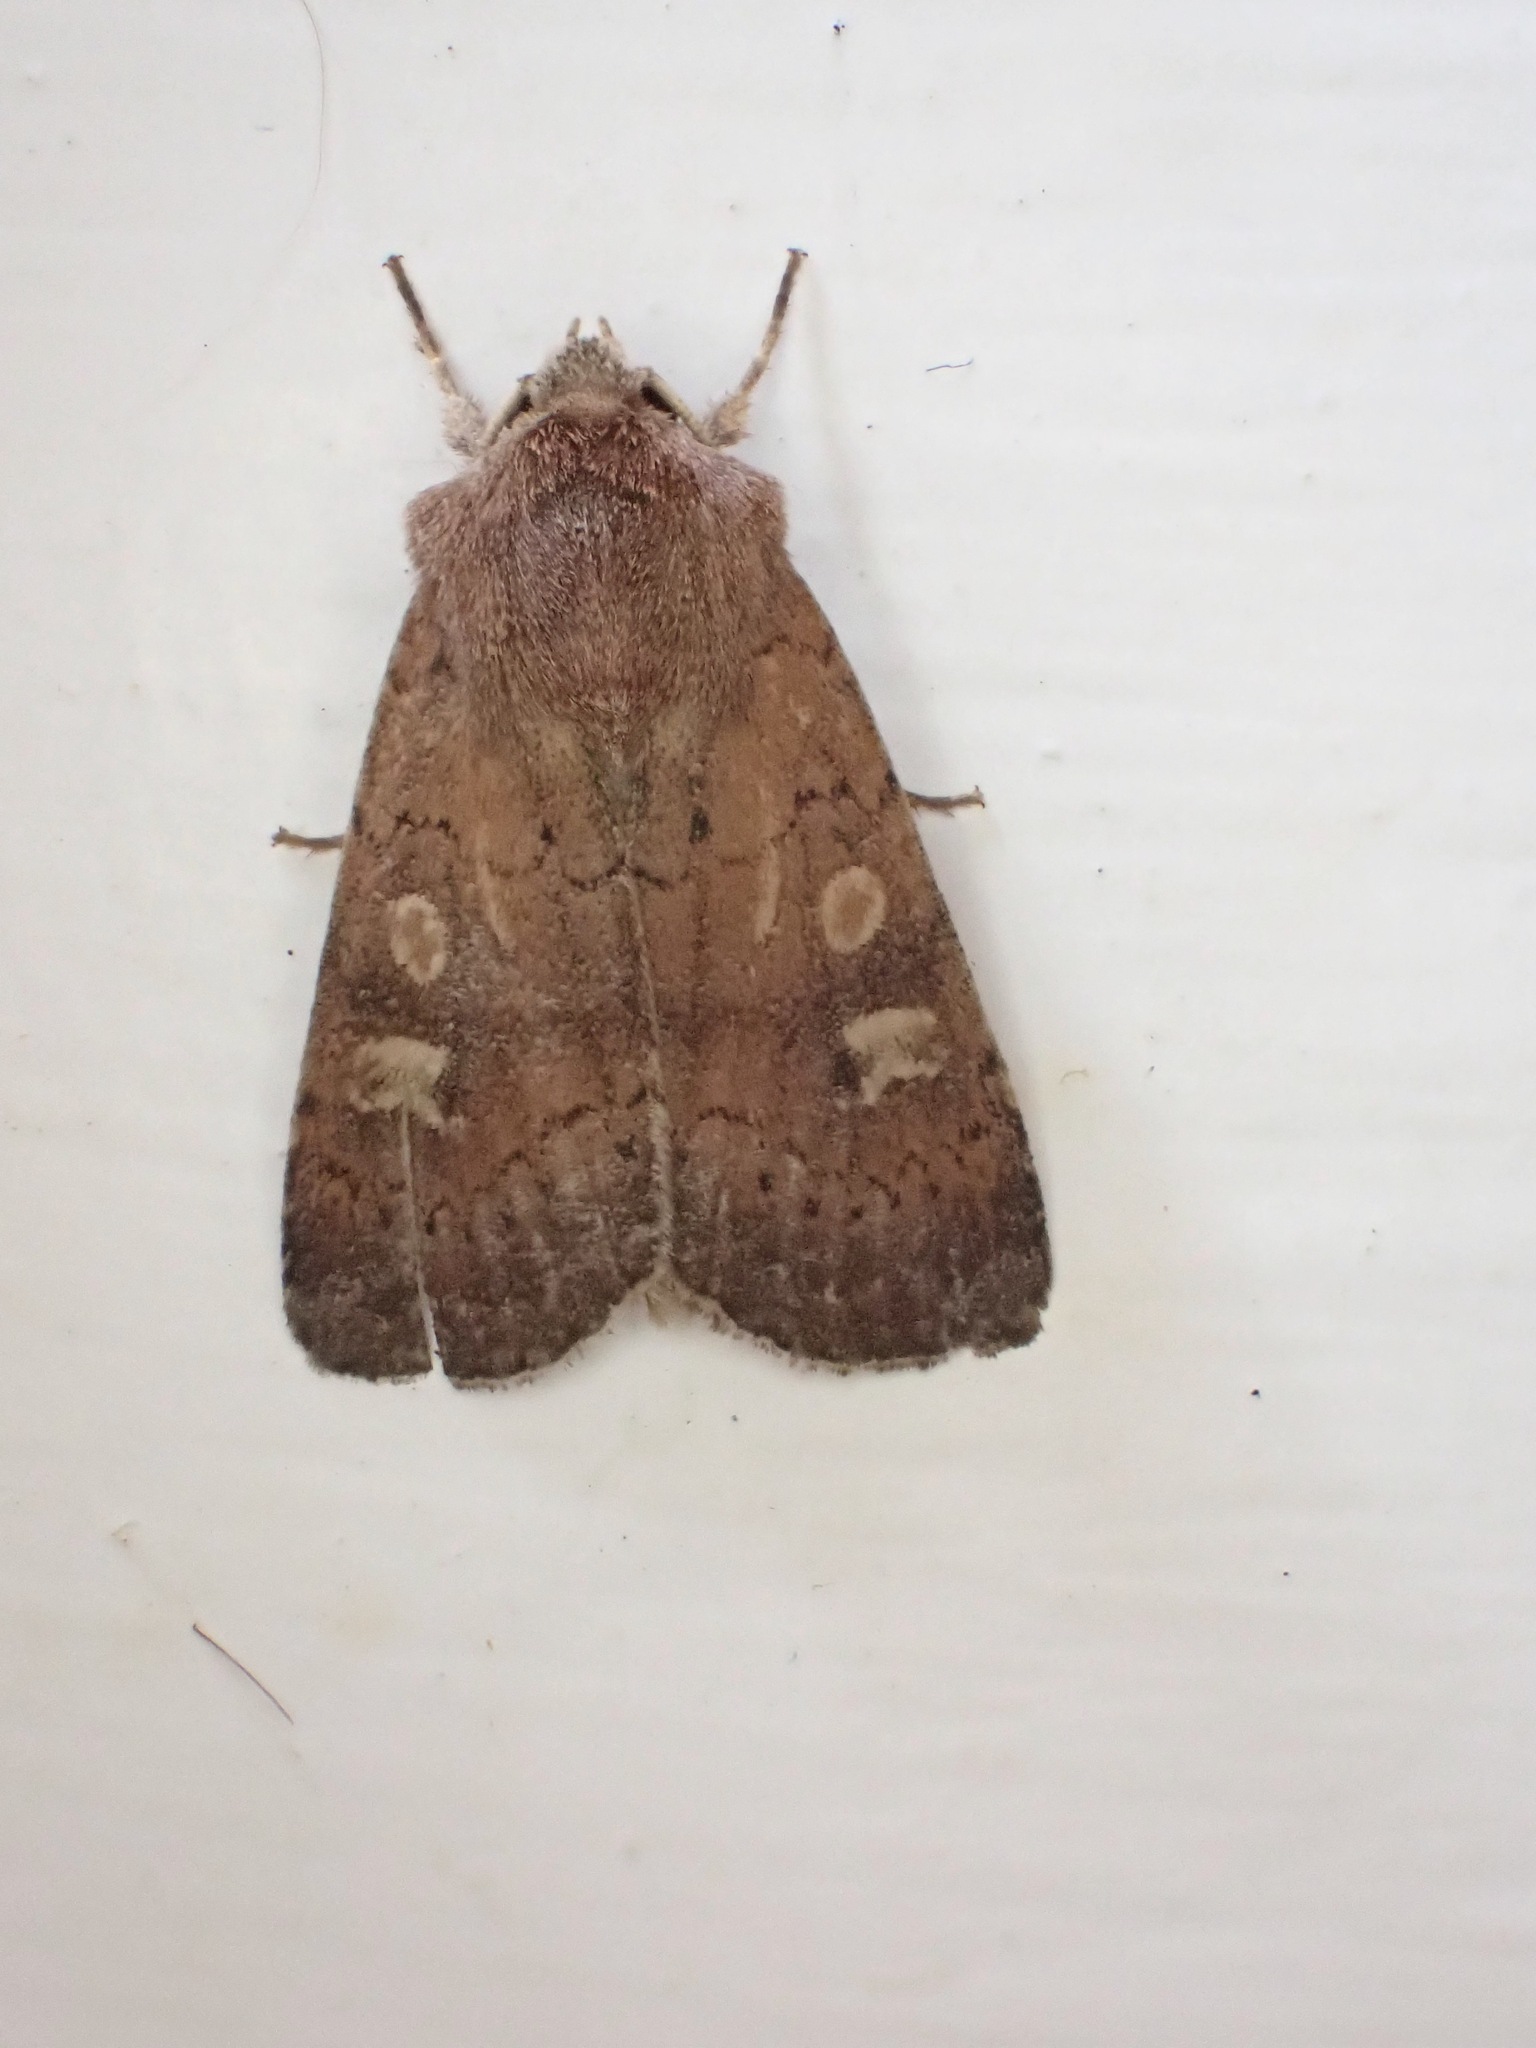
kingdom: Animalia
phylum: Arthropoda
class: Insecta
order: Lepidoptera
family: Noctuidae
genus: Xestia
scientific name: Xestia xanthographa
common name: Square-spot rustic
